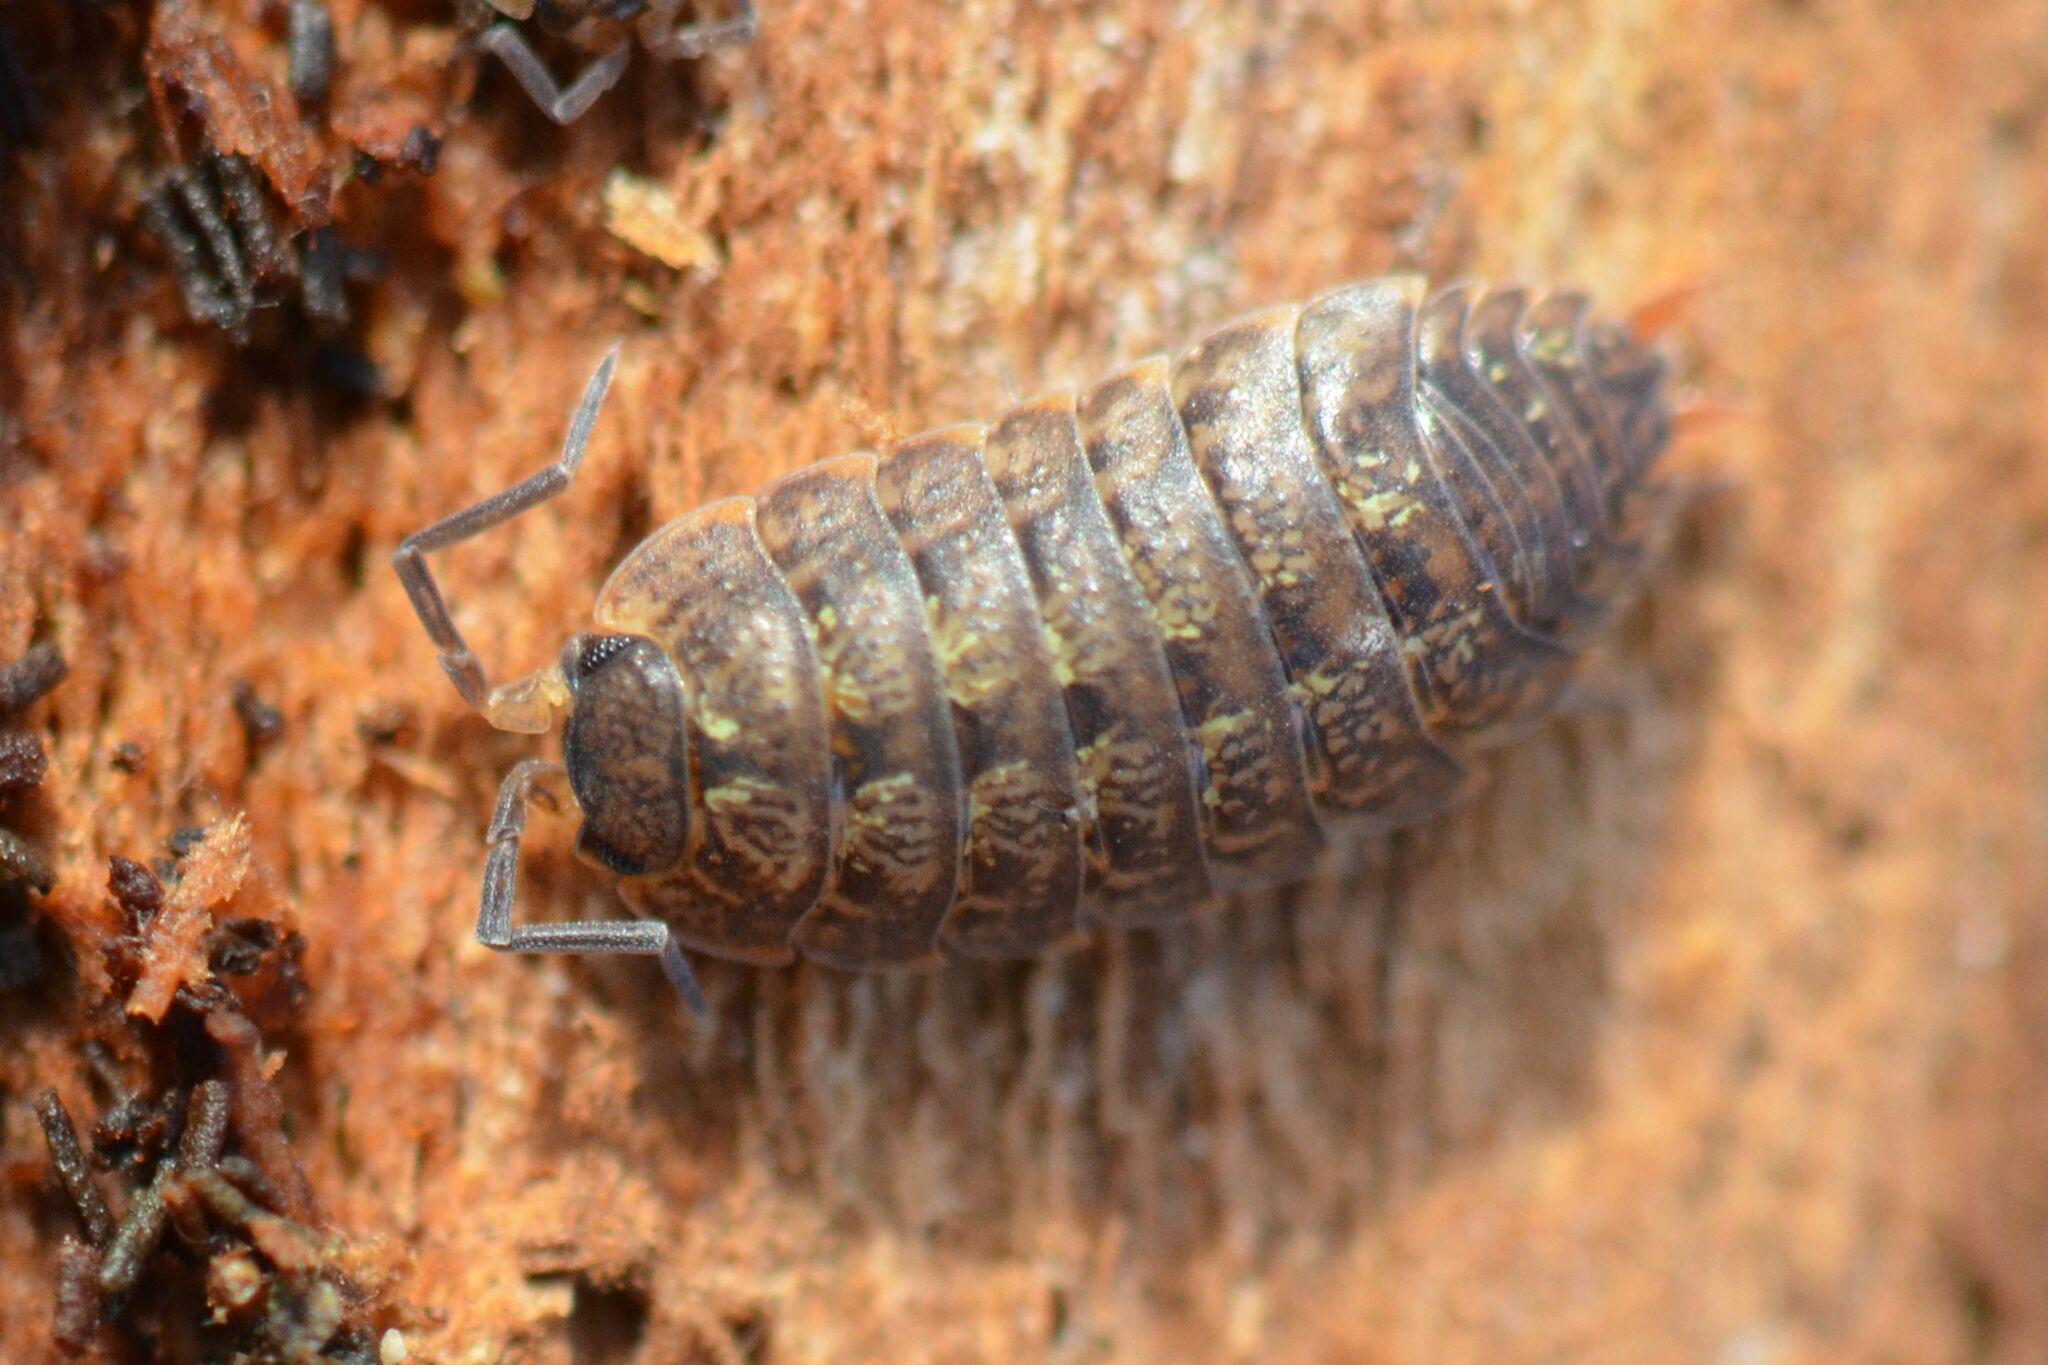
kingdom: Animalia
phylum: Arthropoda
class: Malacostraca
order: Isopoda
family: Porcellionidae
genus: Porcellio
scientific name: Porcellio monticola
